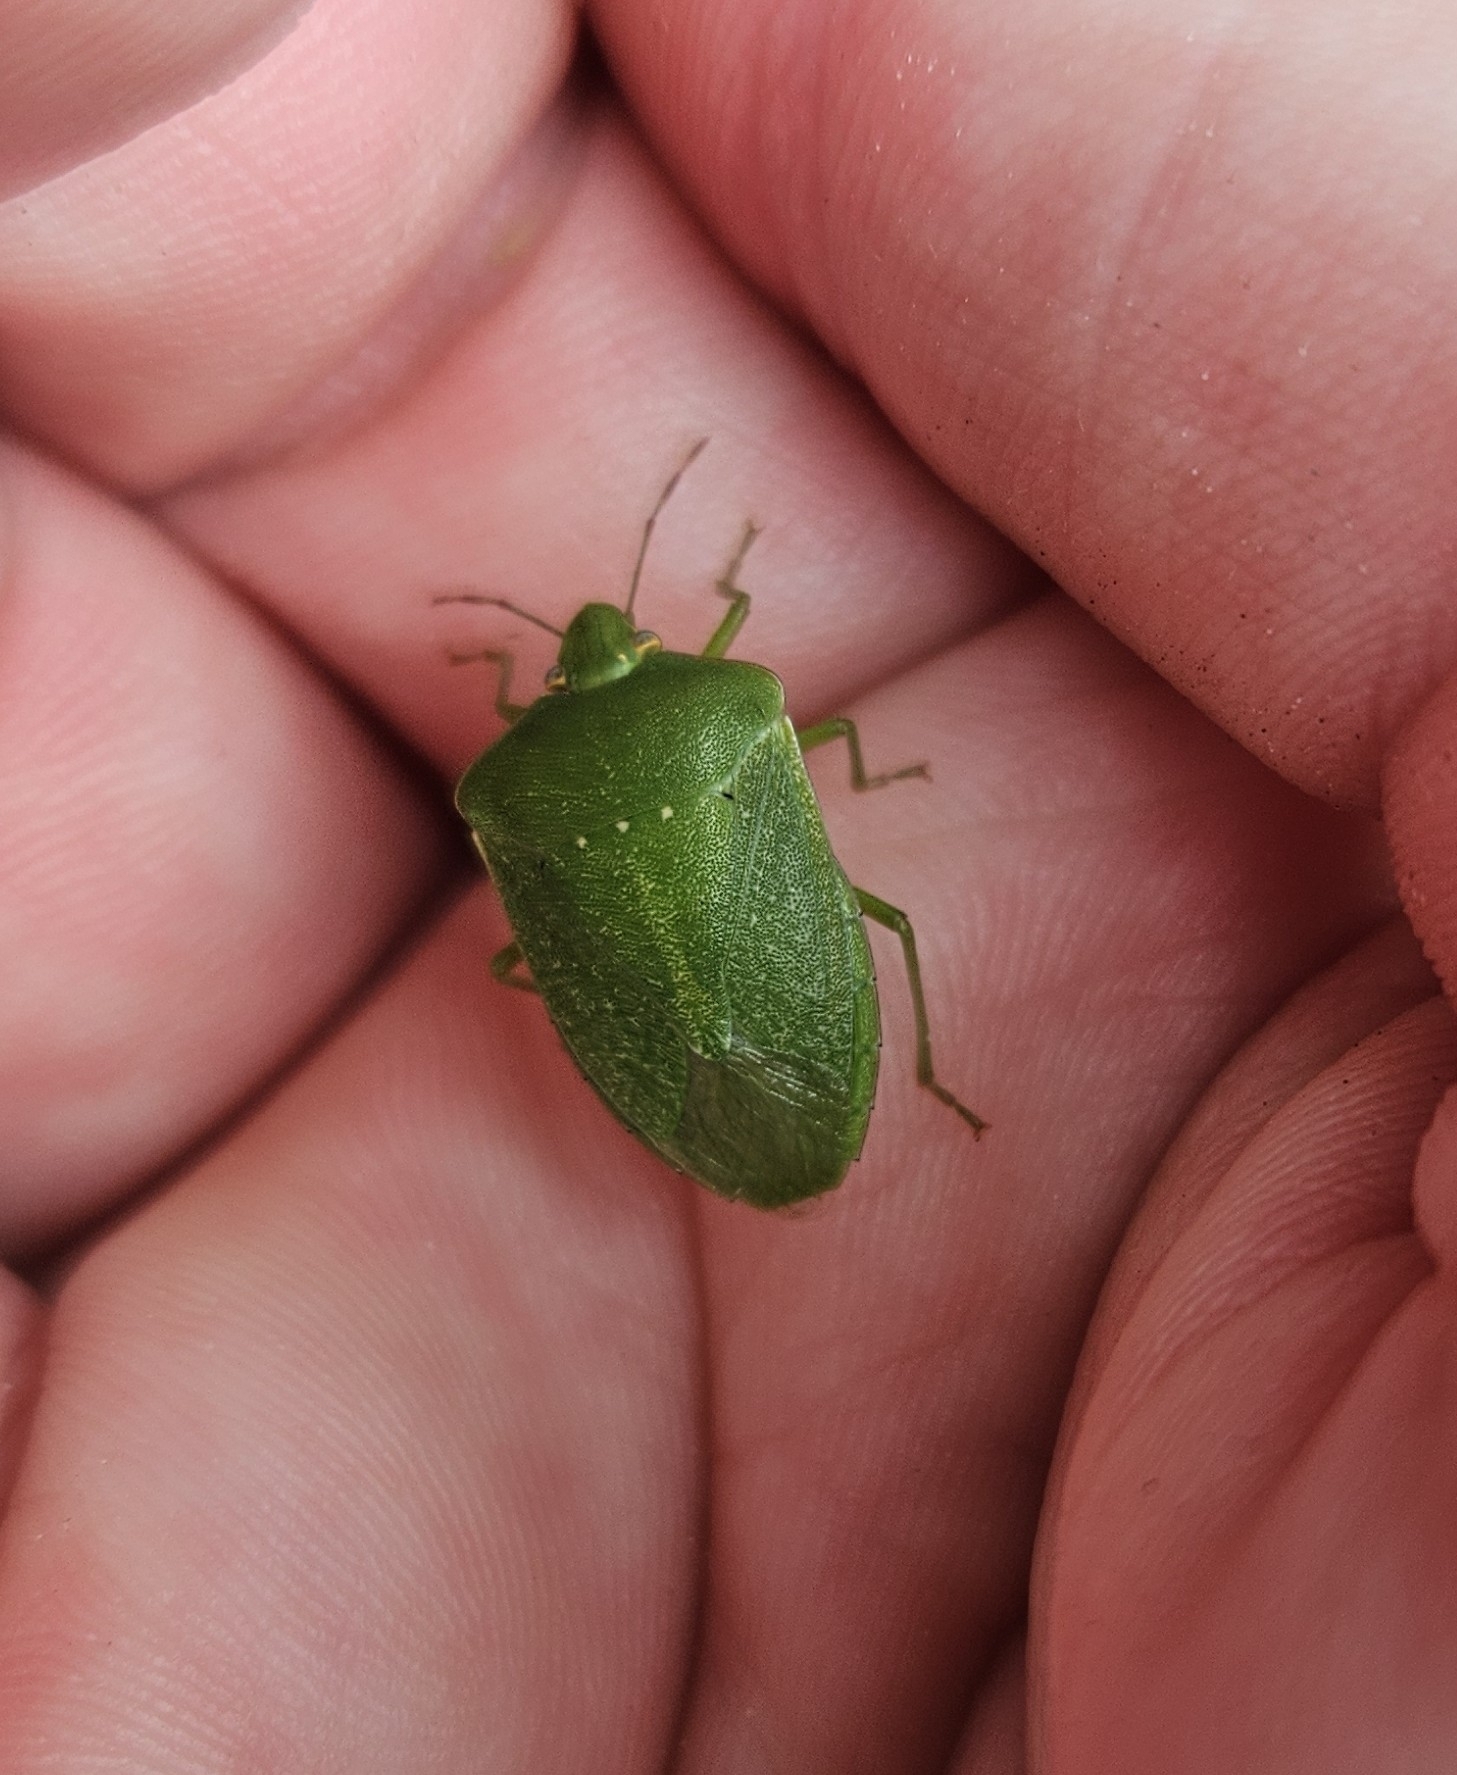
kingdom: Animalia
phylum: Arthropoda
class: Insecta
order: Hemiptera
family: Pentatomidae
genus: Nezara
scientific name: Nezara viridula
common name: Southern green stink bug
